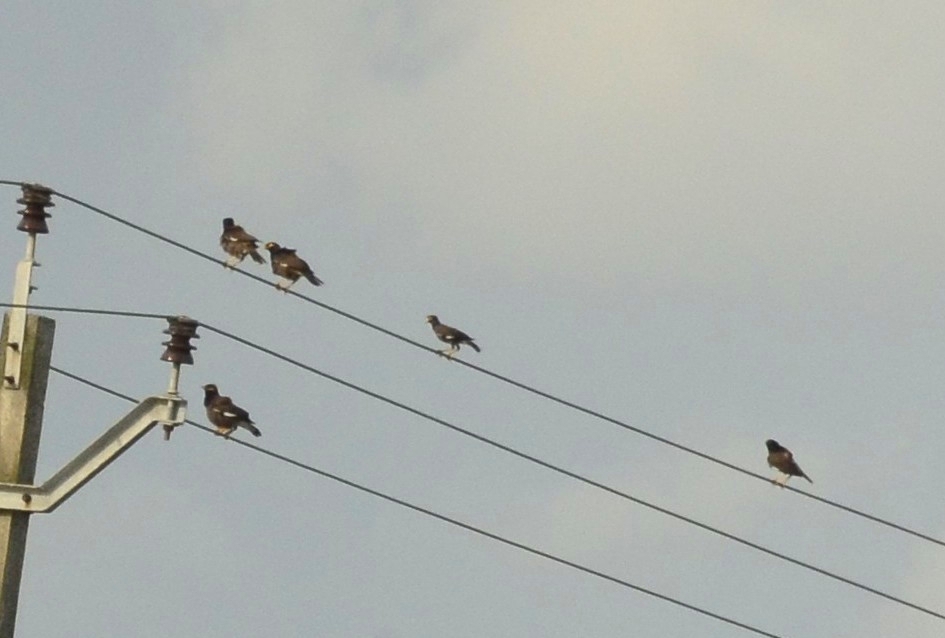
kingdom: Animalia
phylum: Chordata
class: Aves
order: Passeriformes
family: Sturnidae
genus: Acridotheres
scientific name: Acridotheres tristis
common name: Common myna
